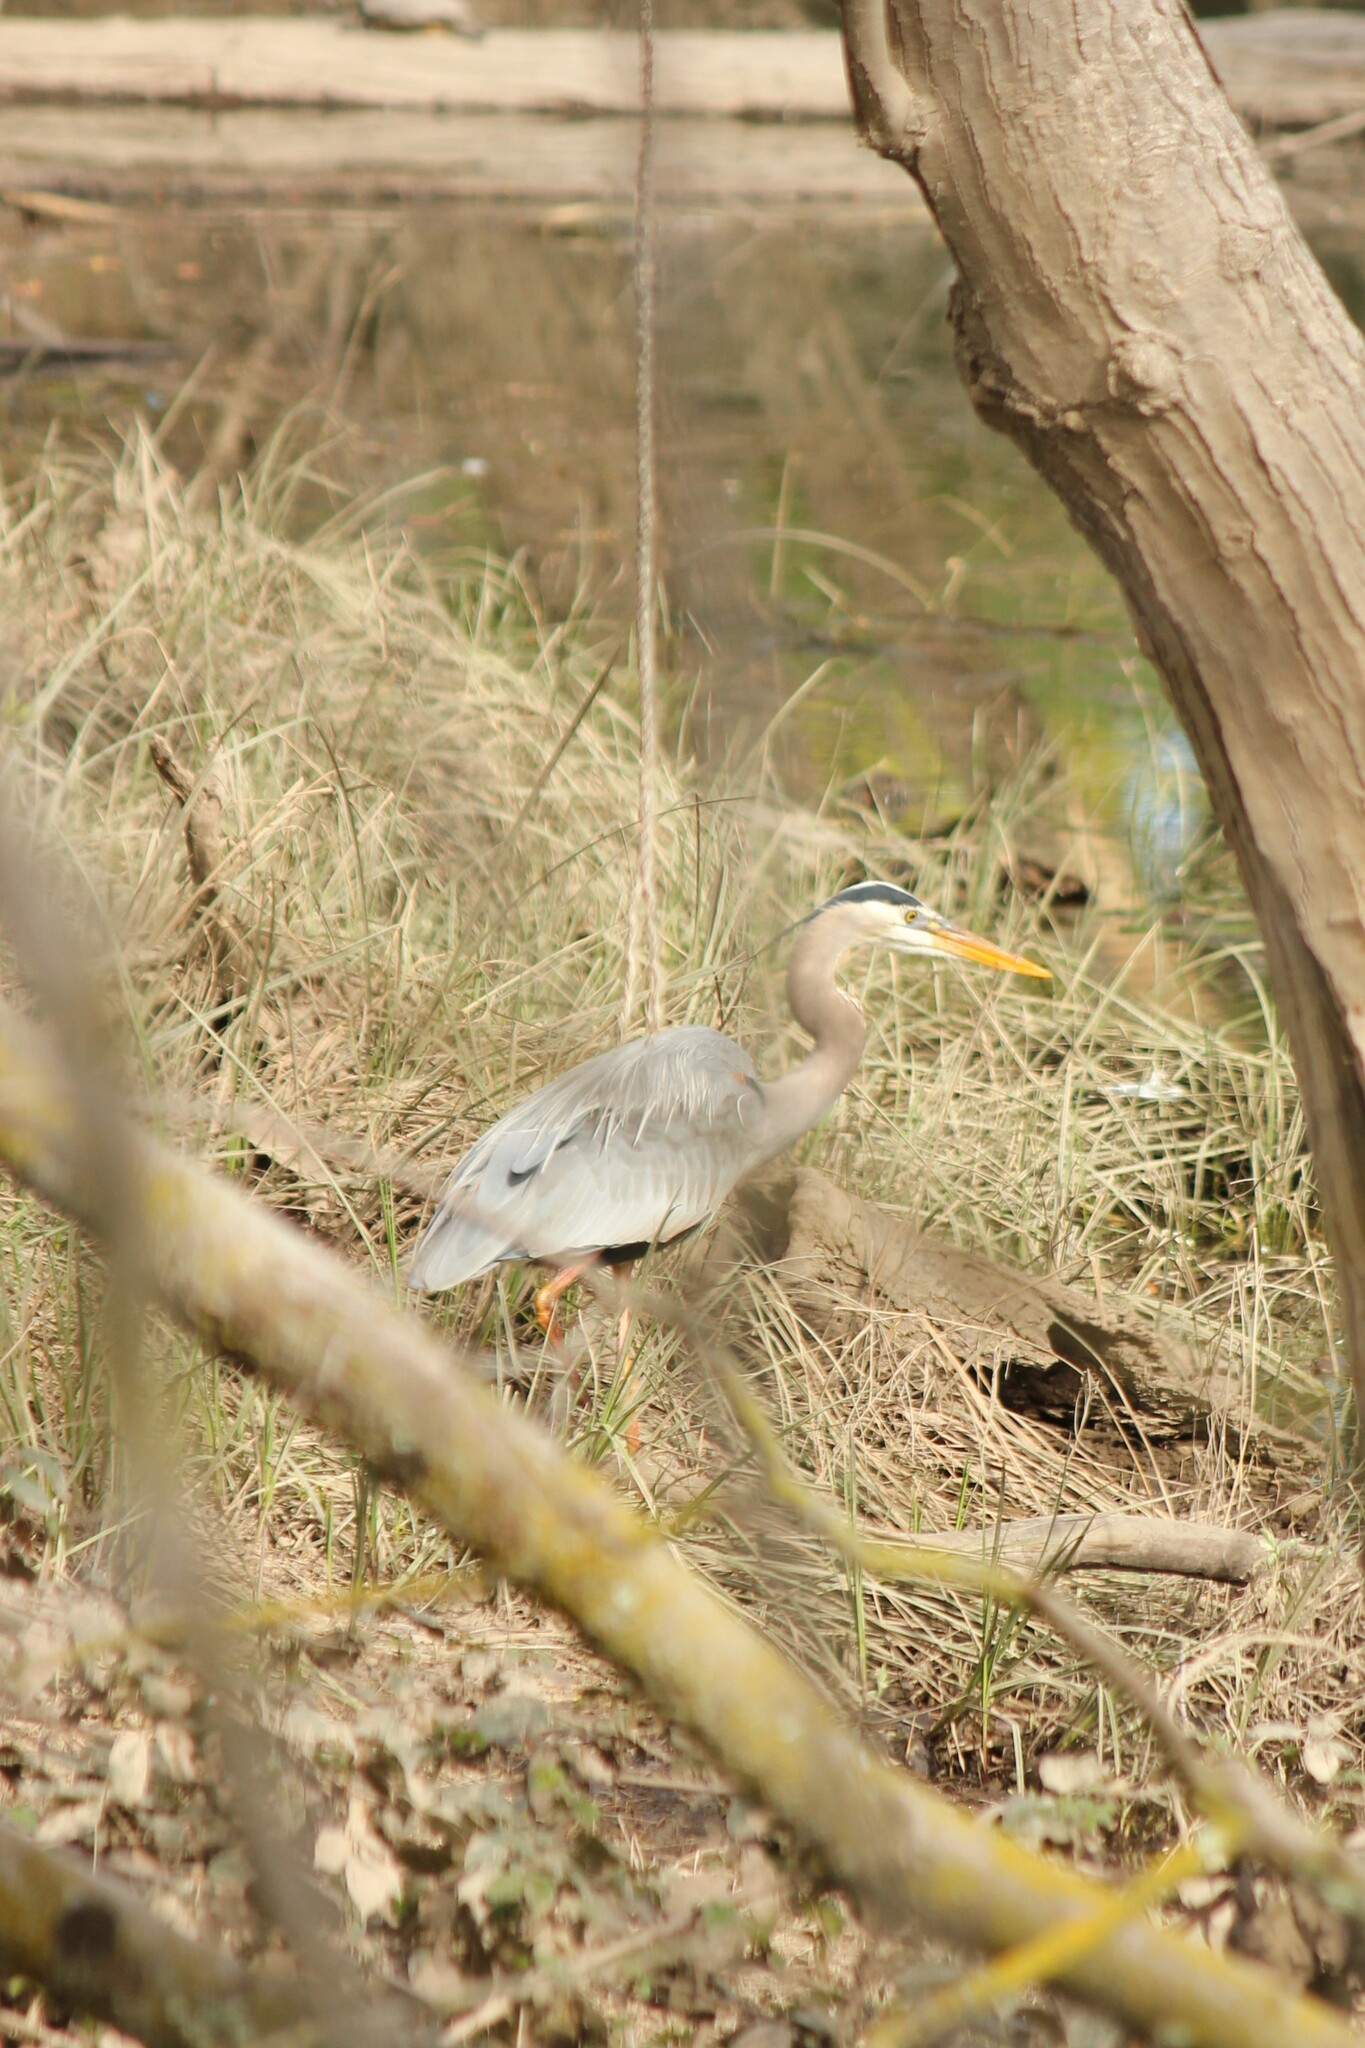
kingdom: Animalia
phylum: Chordata
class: Aves
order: Pelecaniformes
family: Ardeidae
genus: Ardea
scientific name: Ardea herodias
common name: Great blue heron
